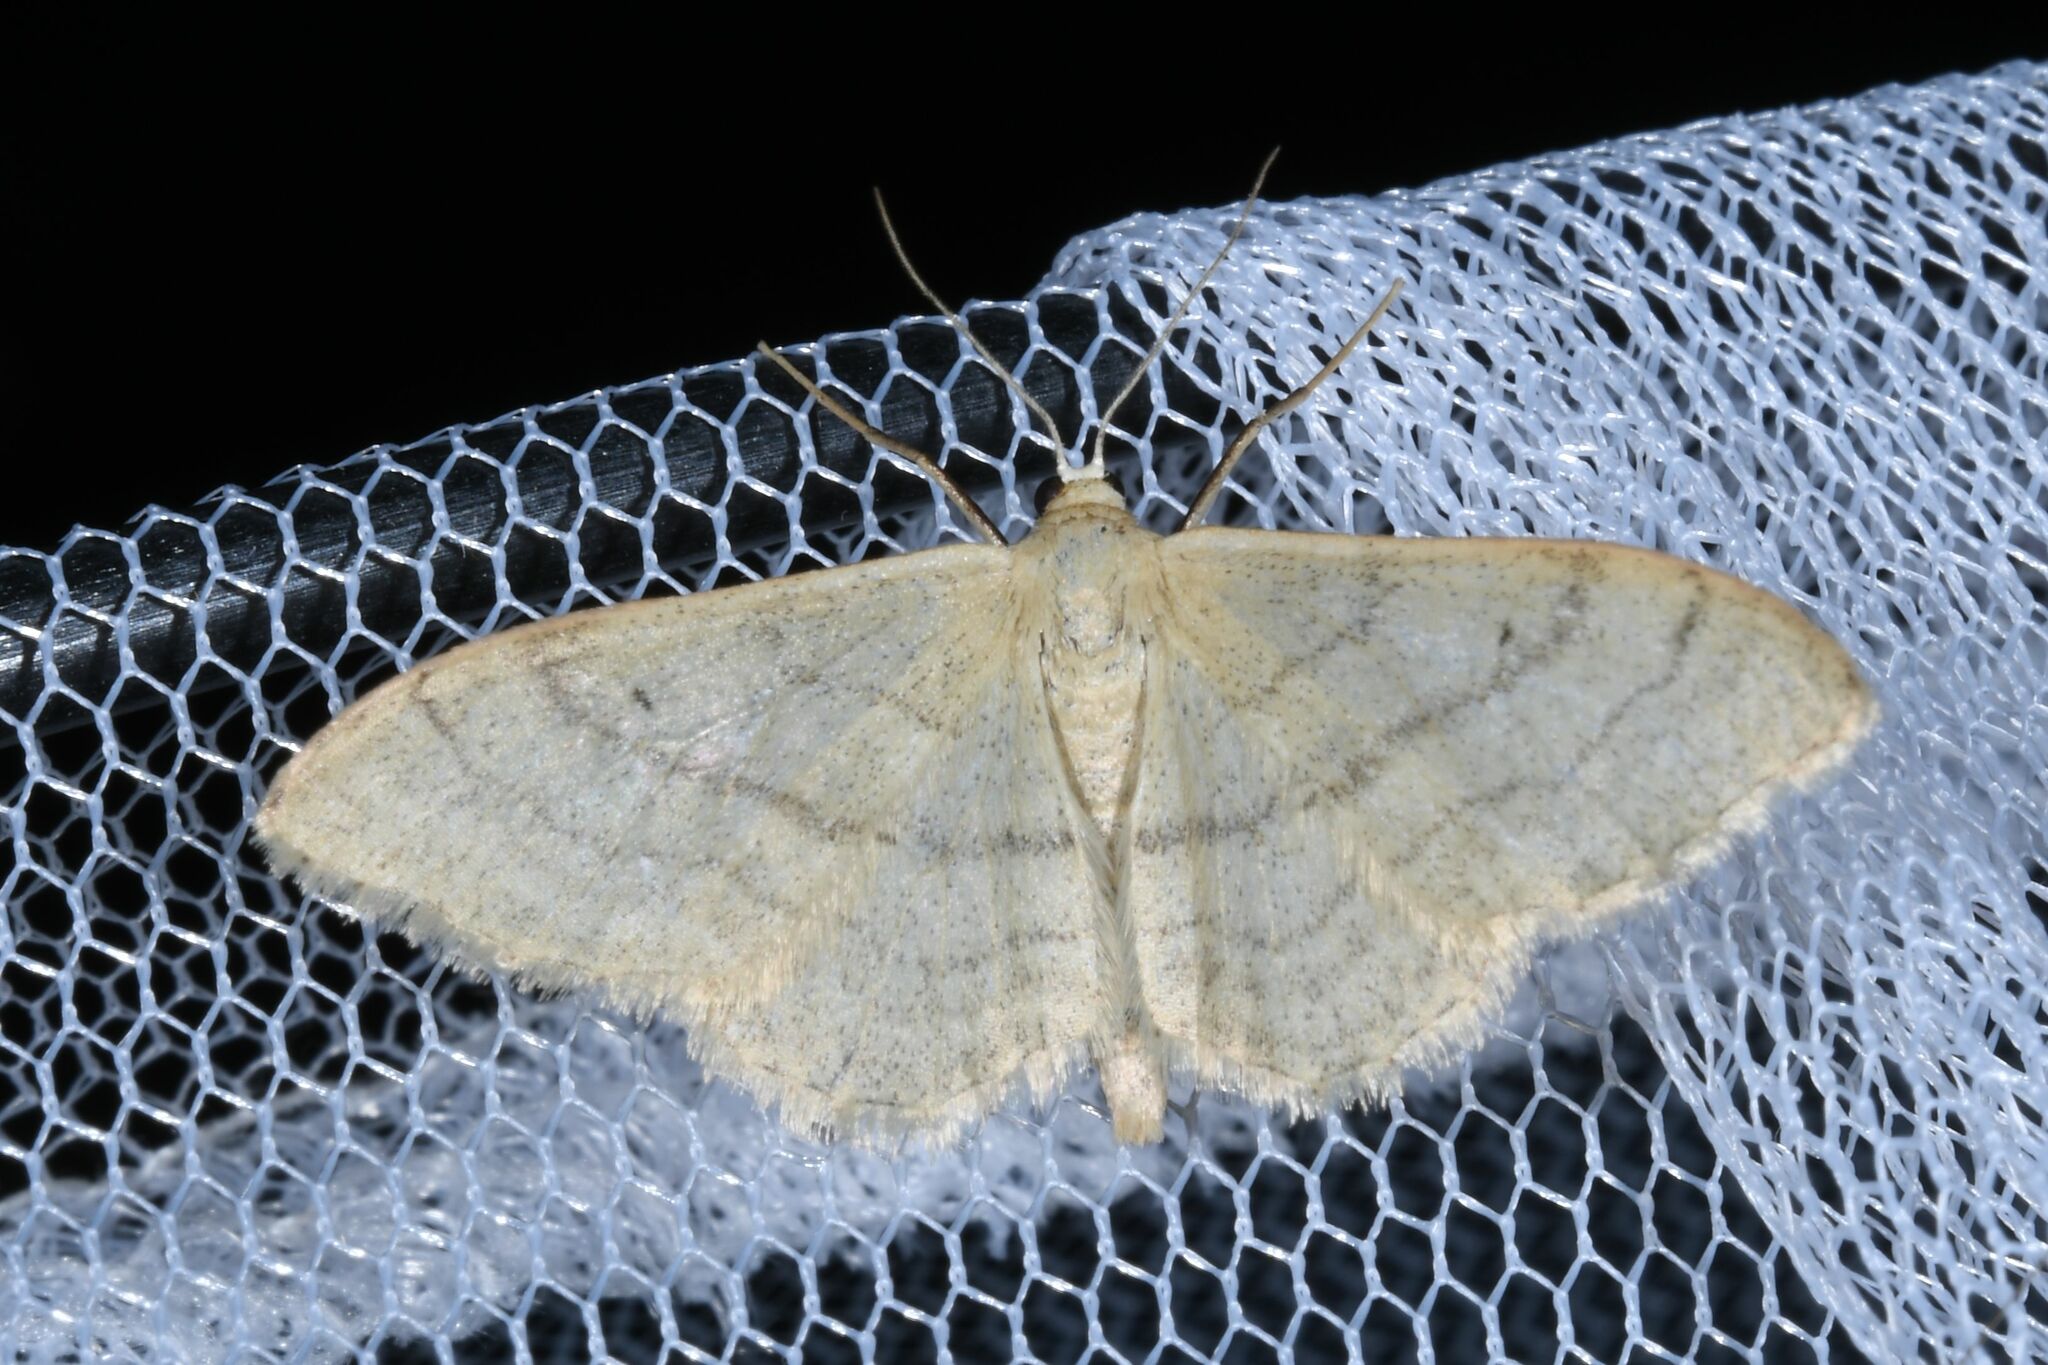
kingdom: Animalia
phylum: Arthropoda
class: Insecta
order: Lepidoptera
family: Geometridae
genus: Idaea
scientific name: Idaea aversata
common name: Riband wave
